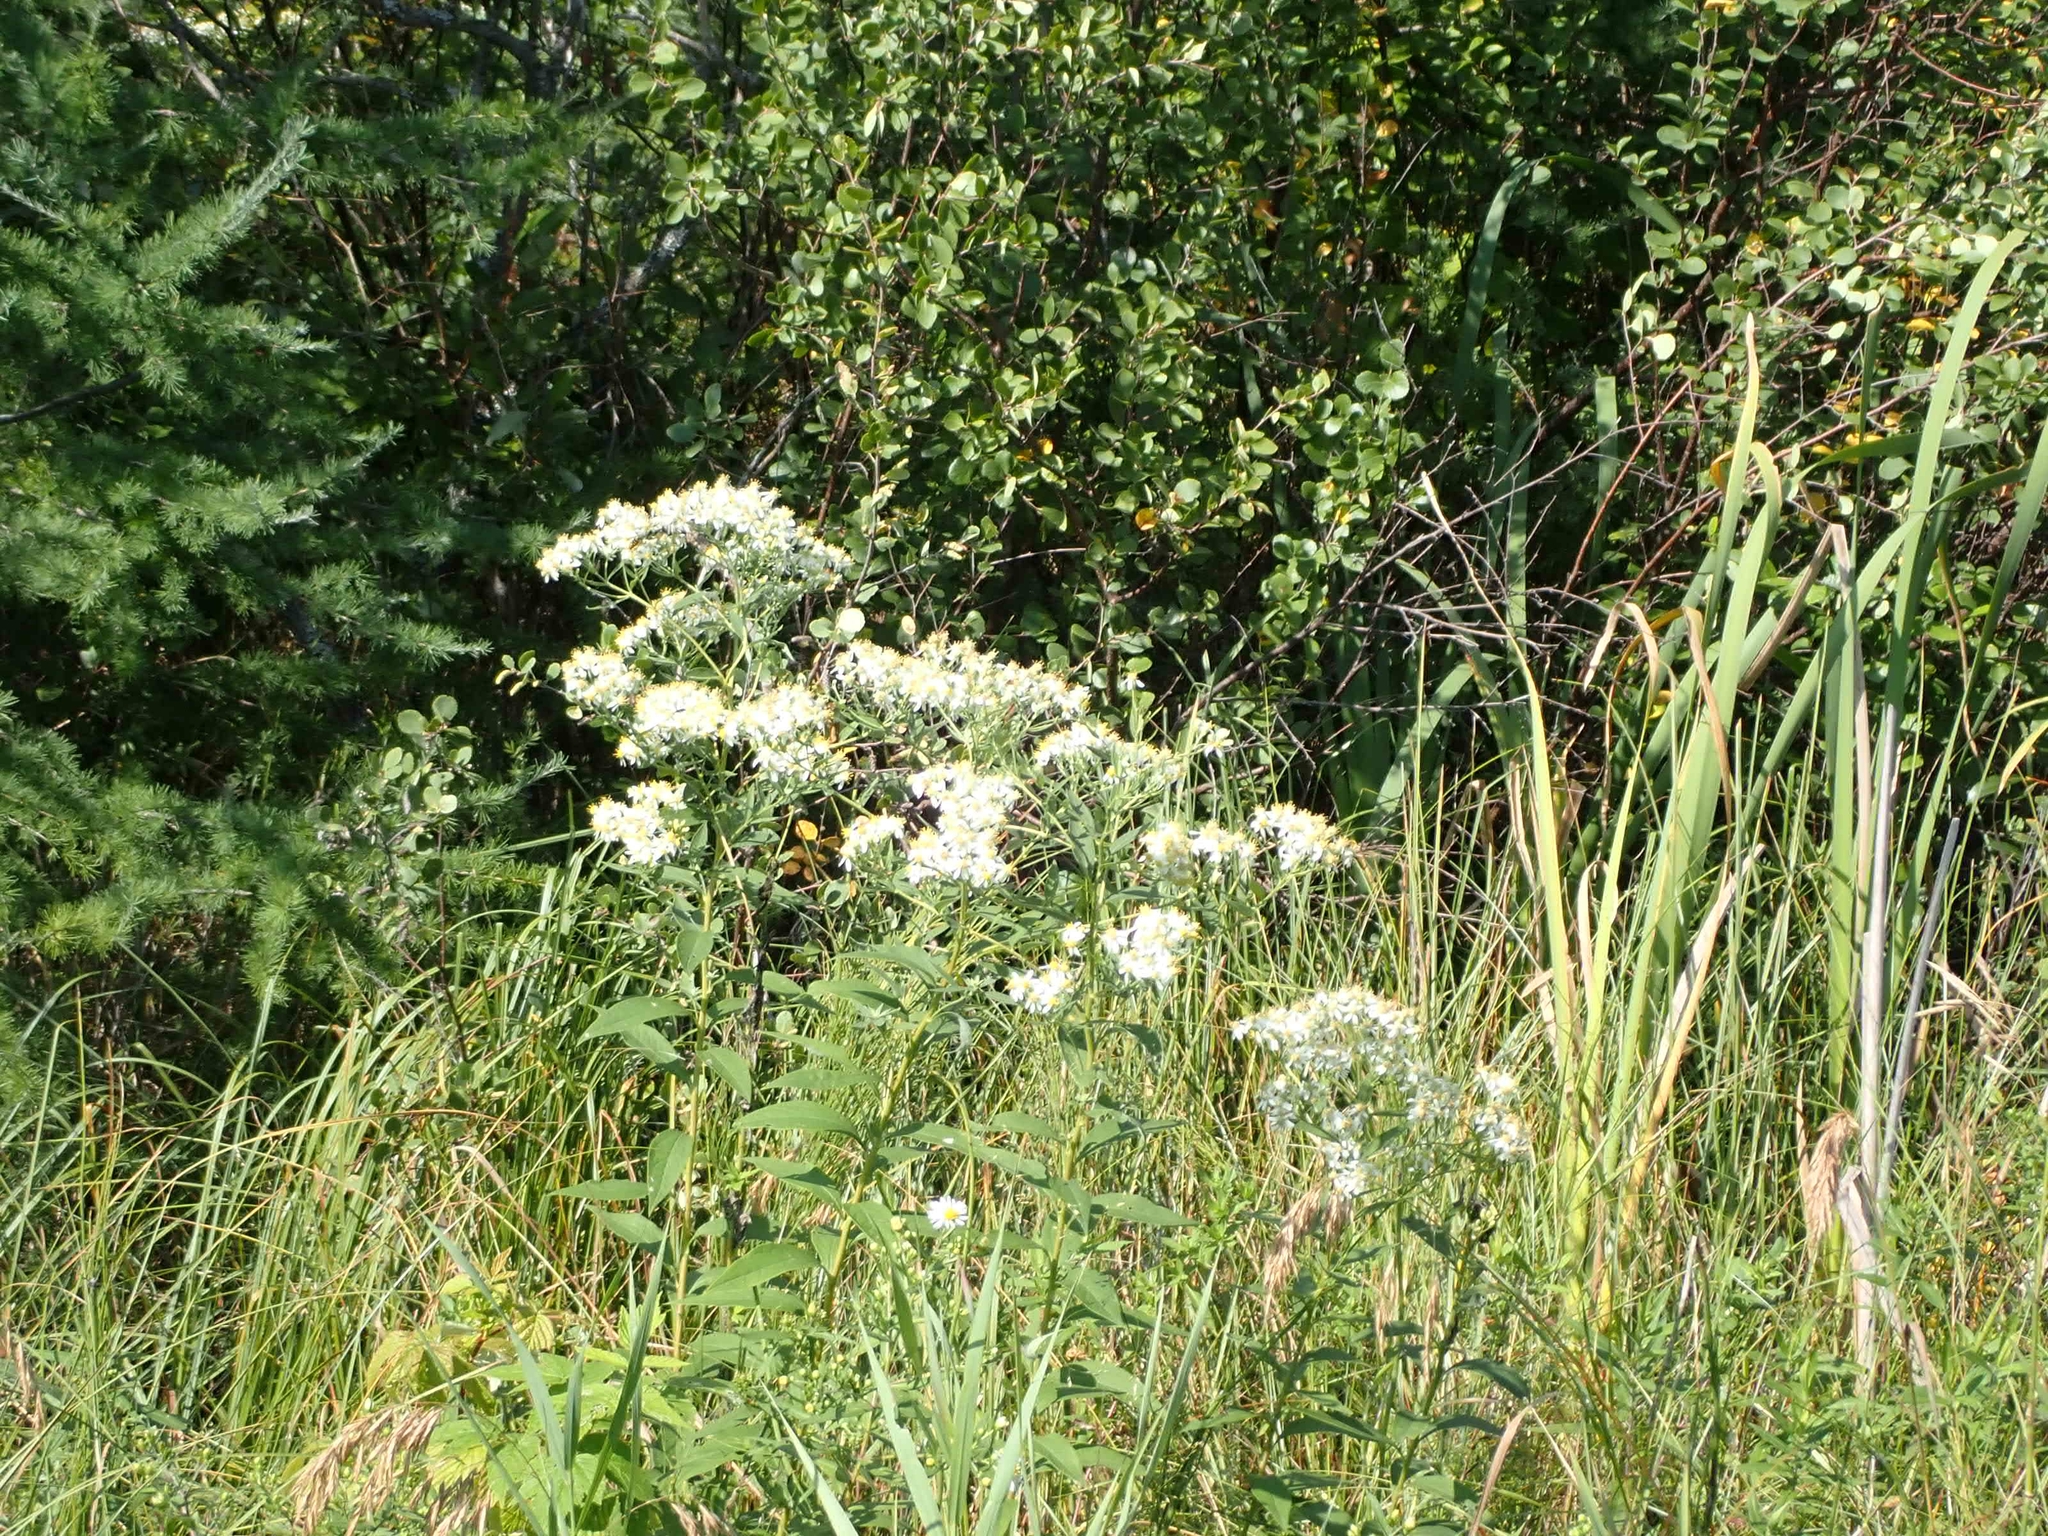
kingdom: Plantae
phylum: Tracheophyta
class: Magnoliopsida
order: Asterales
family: Asteraceae
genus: Doellingeria
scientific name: Doellingeria umbellata
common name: Flat-top white aster
